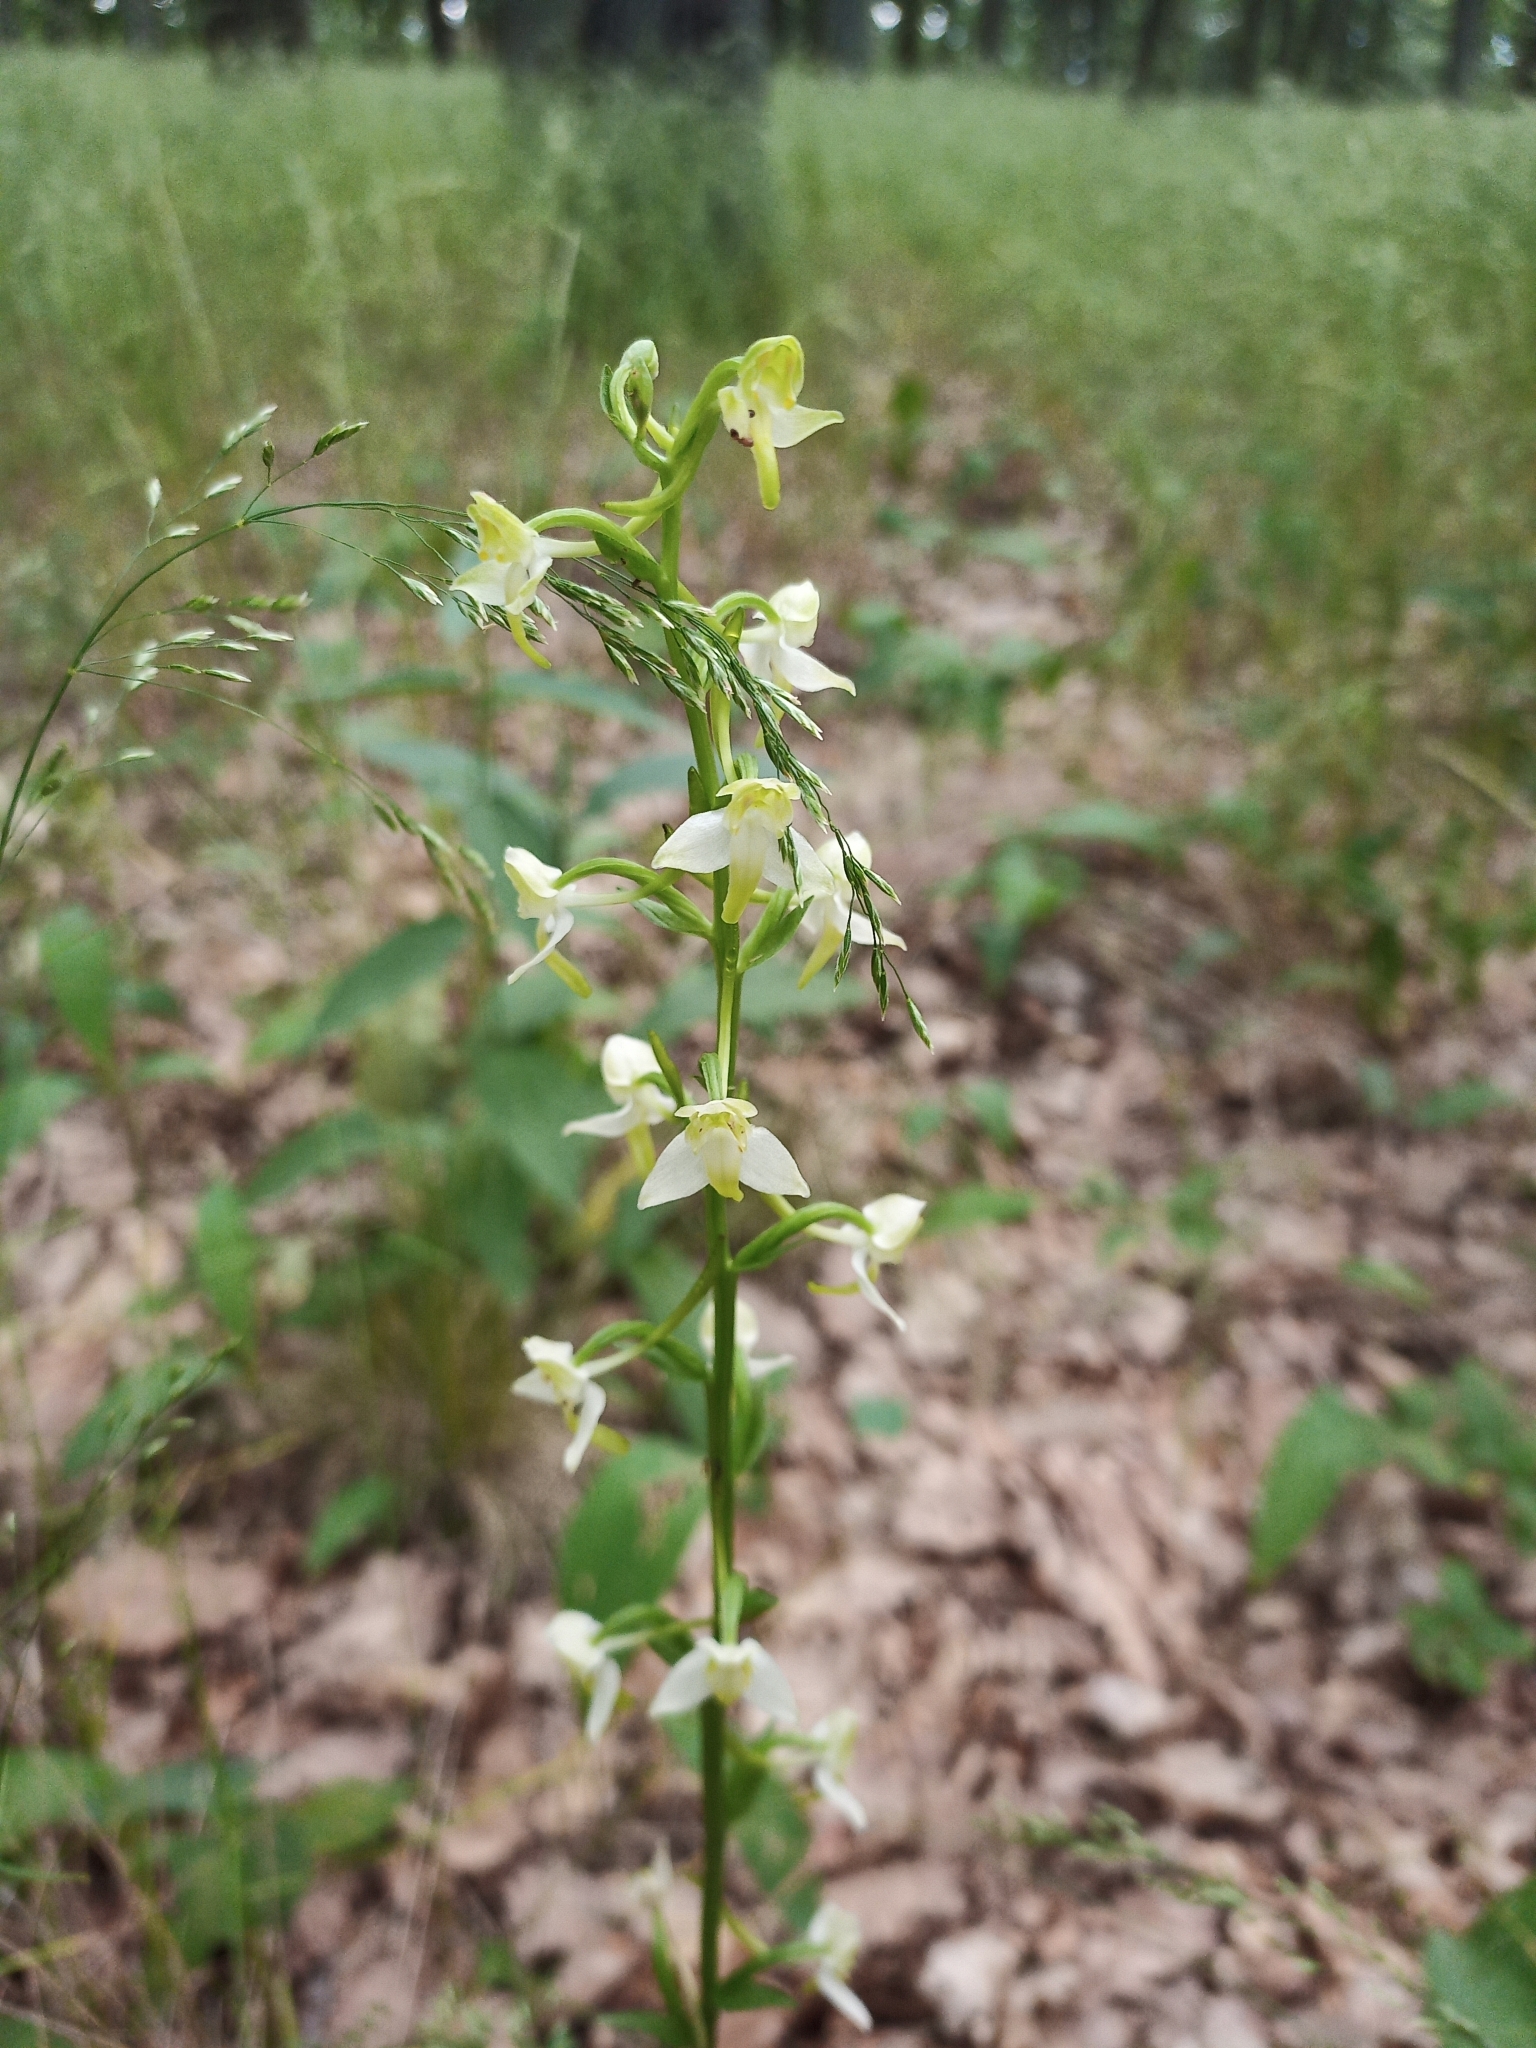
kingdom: Plantae
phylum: Tracheophyta
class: Liliopsida
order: Asparagales
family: Orchidaceae
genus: Platanthera
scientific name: Platanthera chlorantha
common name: Greater butterfly-orchid
